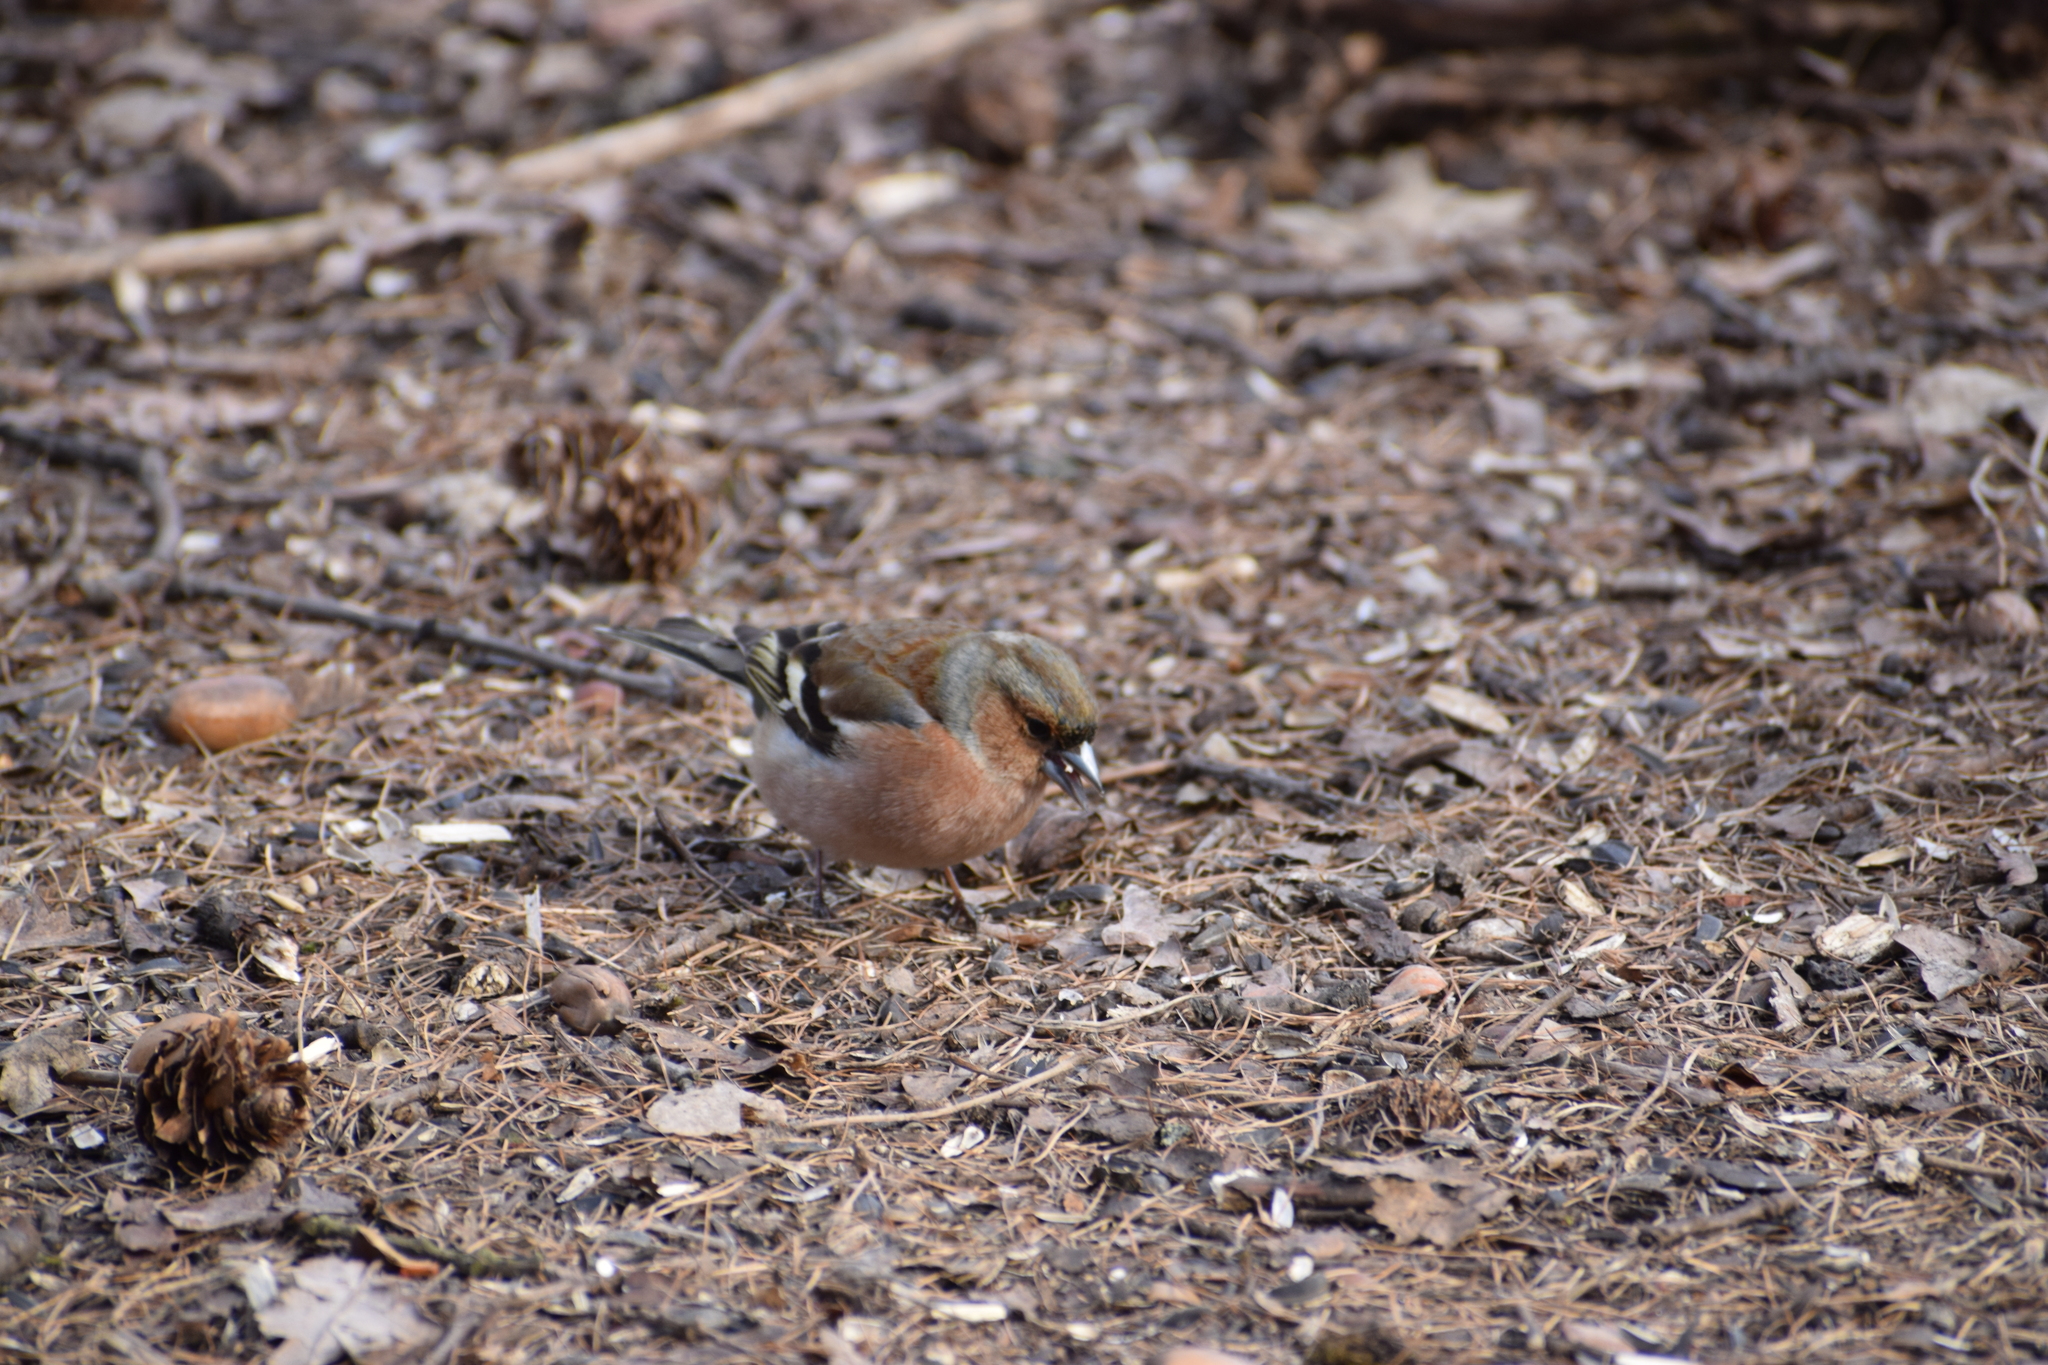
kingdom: Animalia
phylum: Chordata
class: Aves
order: Passeriformes
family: Fringillidae
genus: Fringilla
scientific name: Fringilla coelebs
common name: Common chaffinch
